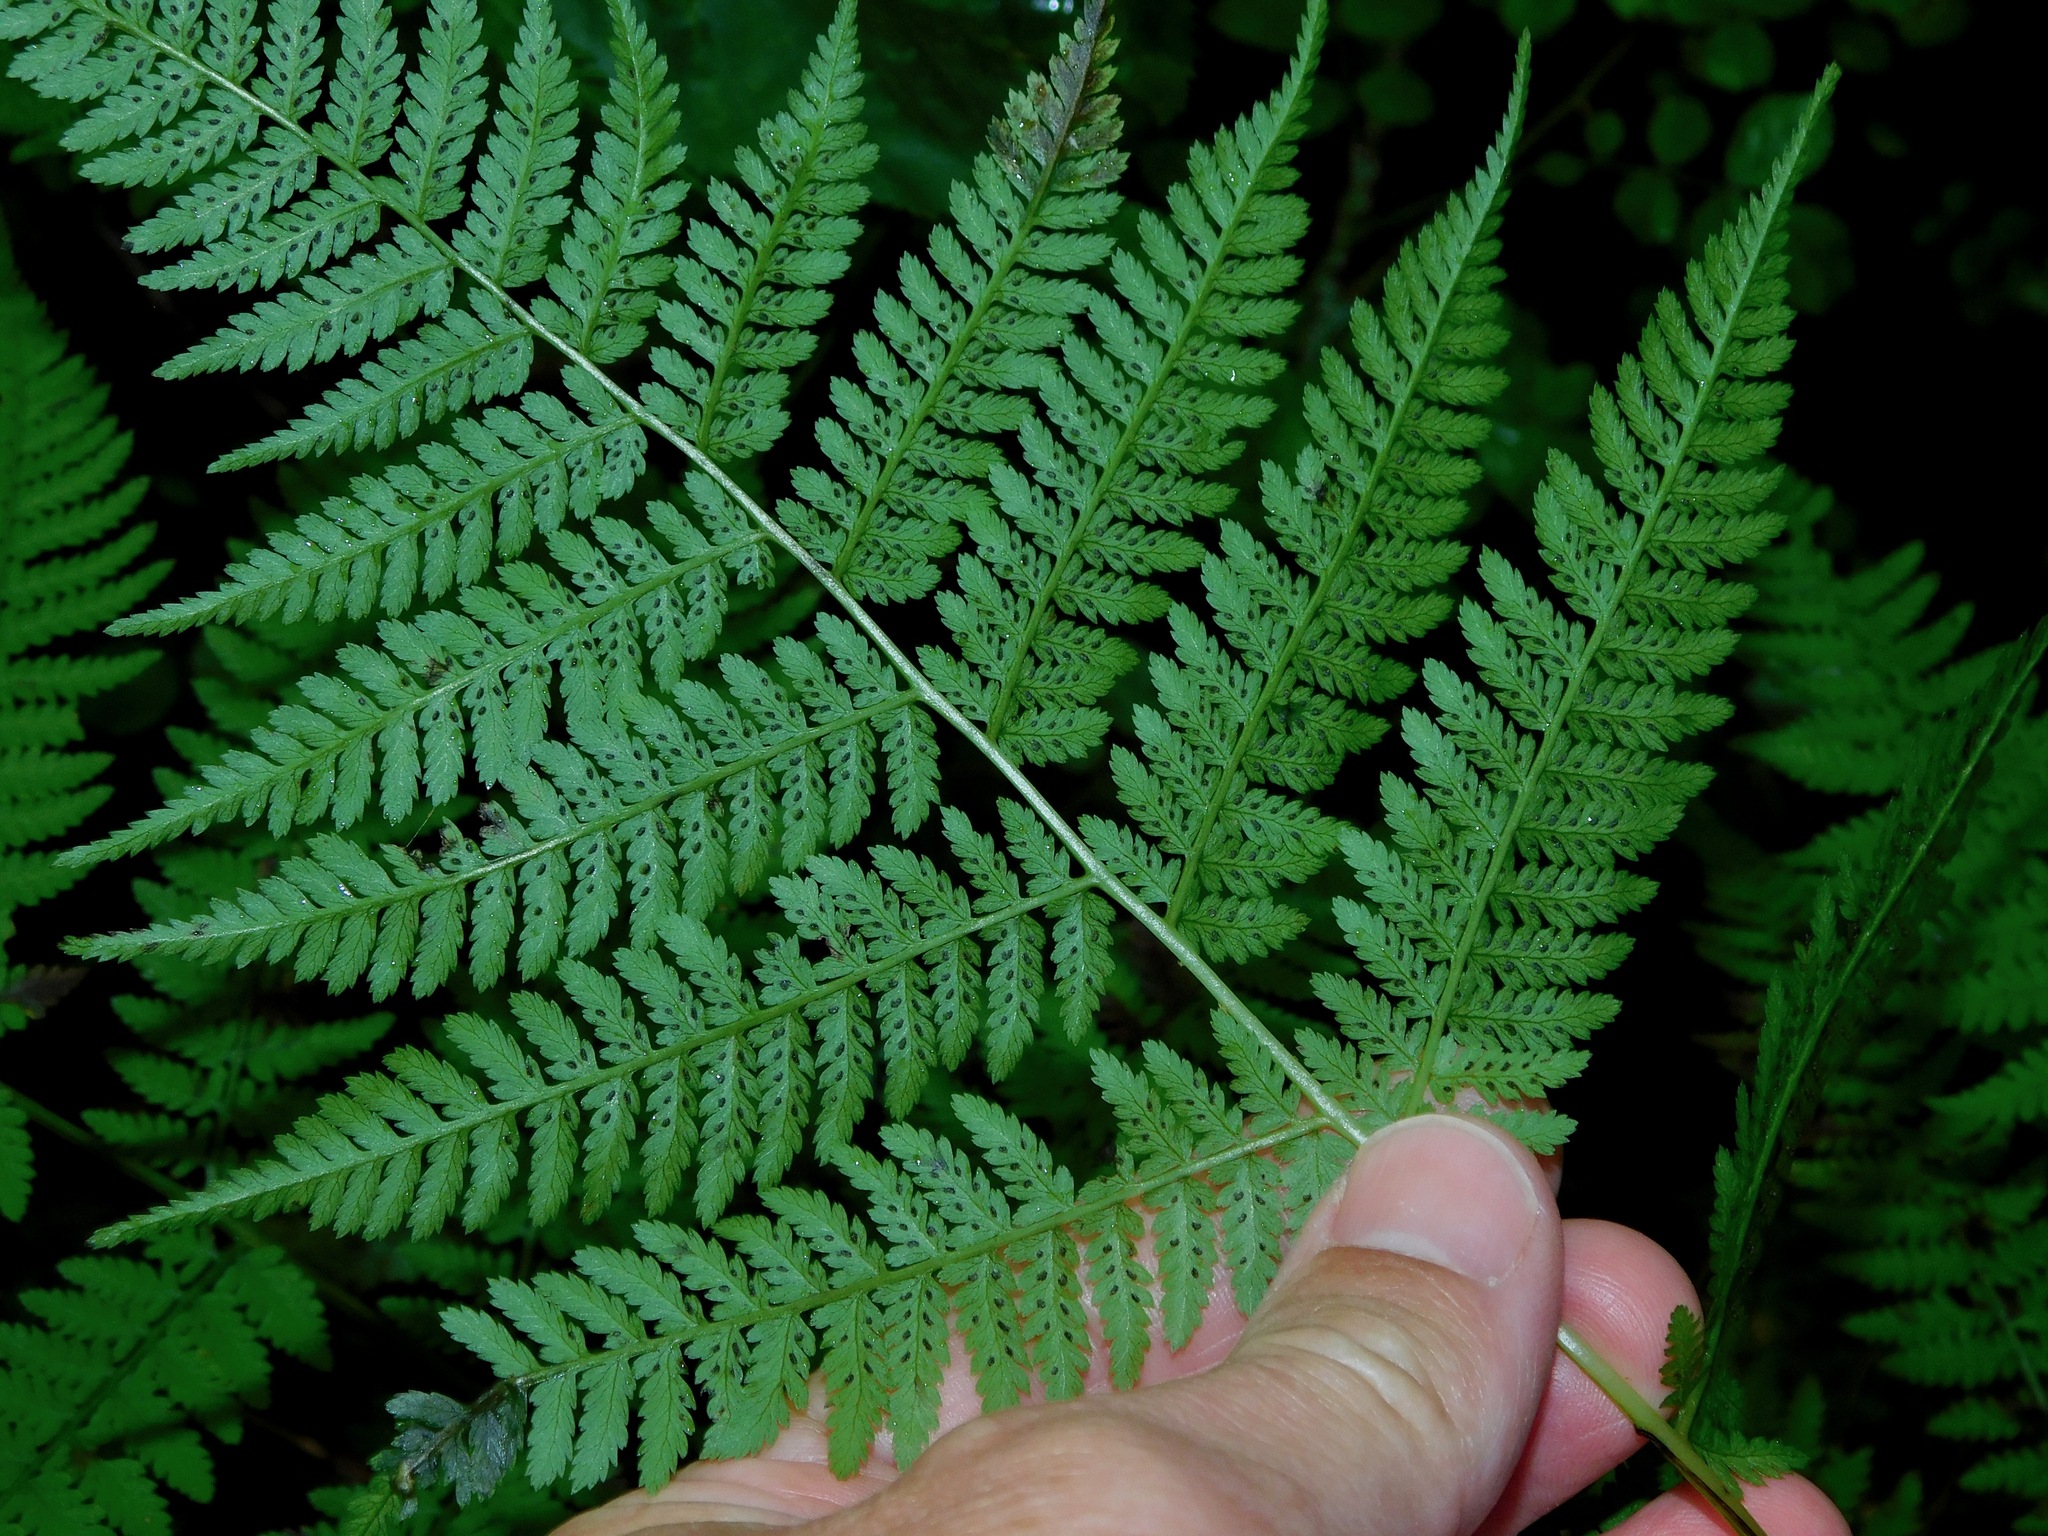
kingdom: Plantae
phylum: Tracheophyta
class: Polypodiopsida
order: Polypodiales
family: Athyriaceae
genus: Athyrium
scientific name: Athyrium asplenioides
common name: Southern lady fern
